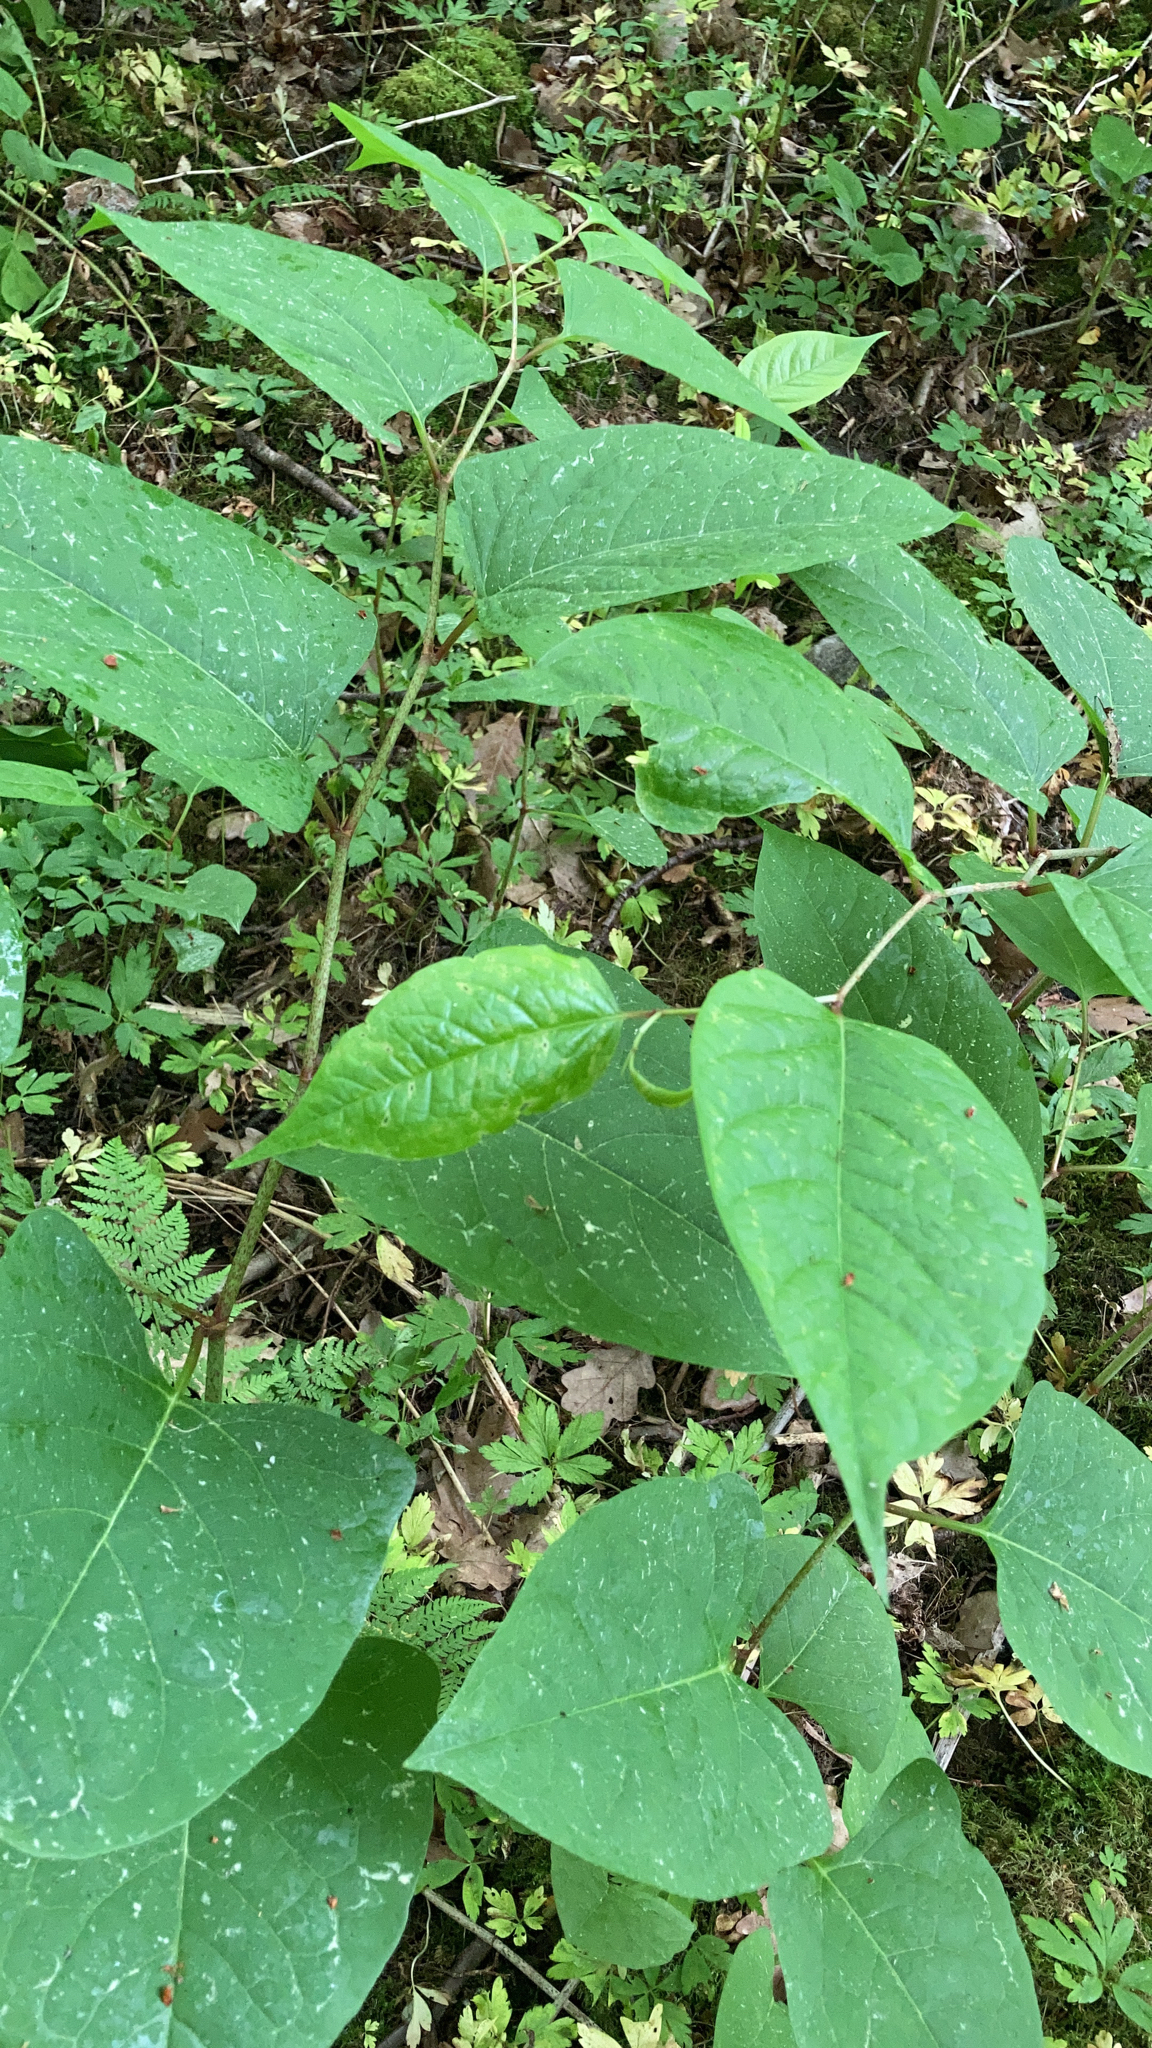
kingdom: Plantae
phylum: Tracheophyta
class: Magnoliopsida
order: Caryophyllales
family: Polygonaceae
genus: Reynoutria
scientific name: Reynoutria japonica
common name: Japanese knotweed
